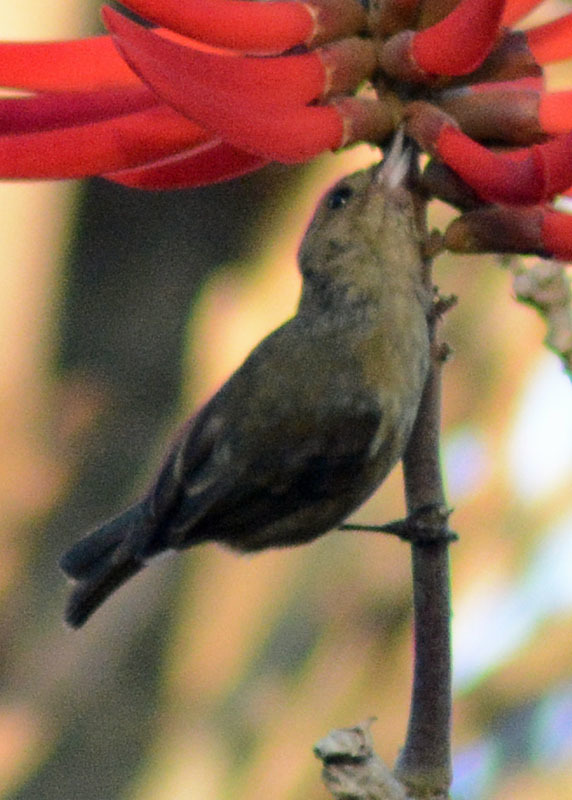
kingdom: Animalia
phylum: Chordata
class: Aves
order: Passeriformes
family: Thraupidae
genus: Diglossa
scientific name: Diglossa baritula
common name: Cinnamon-bellied flowerpiercer
